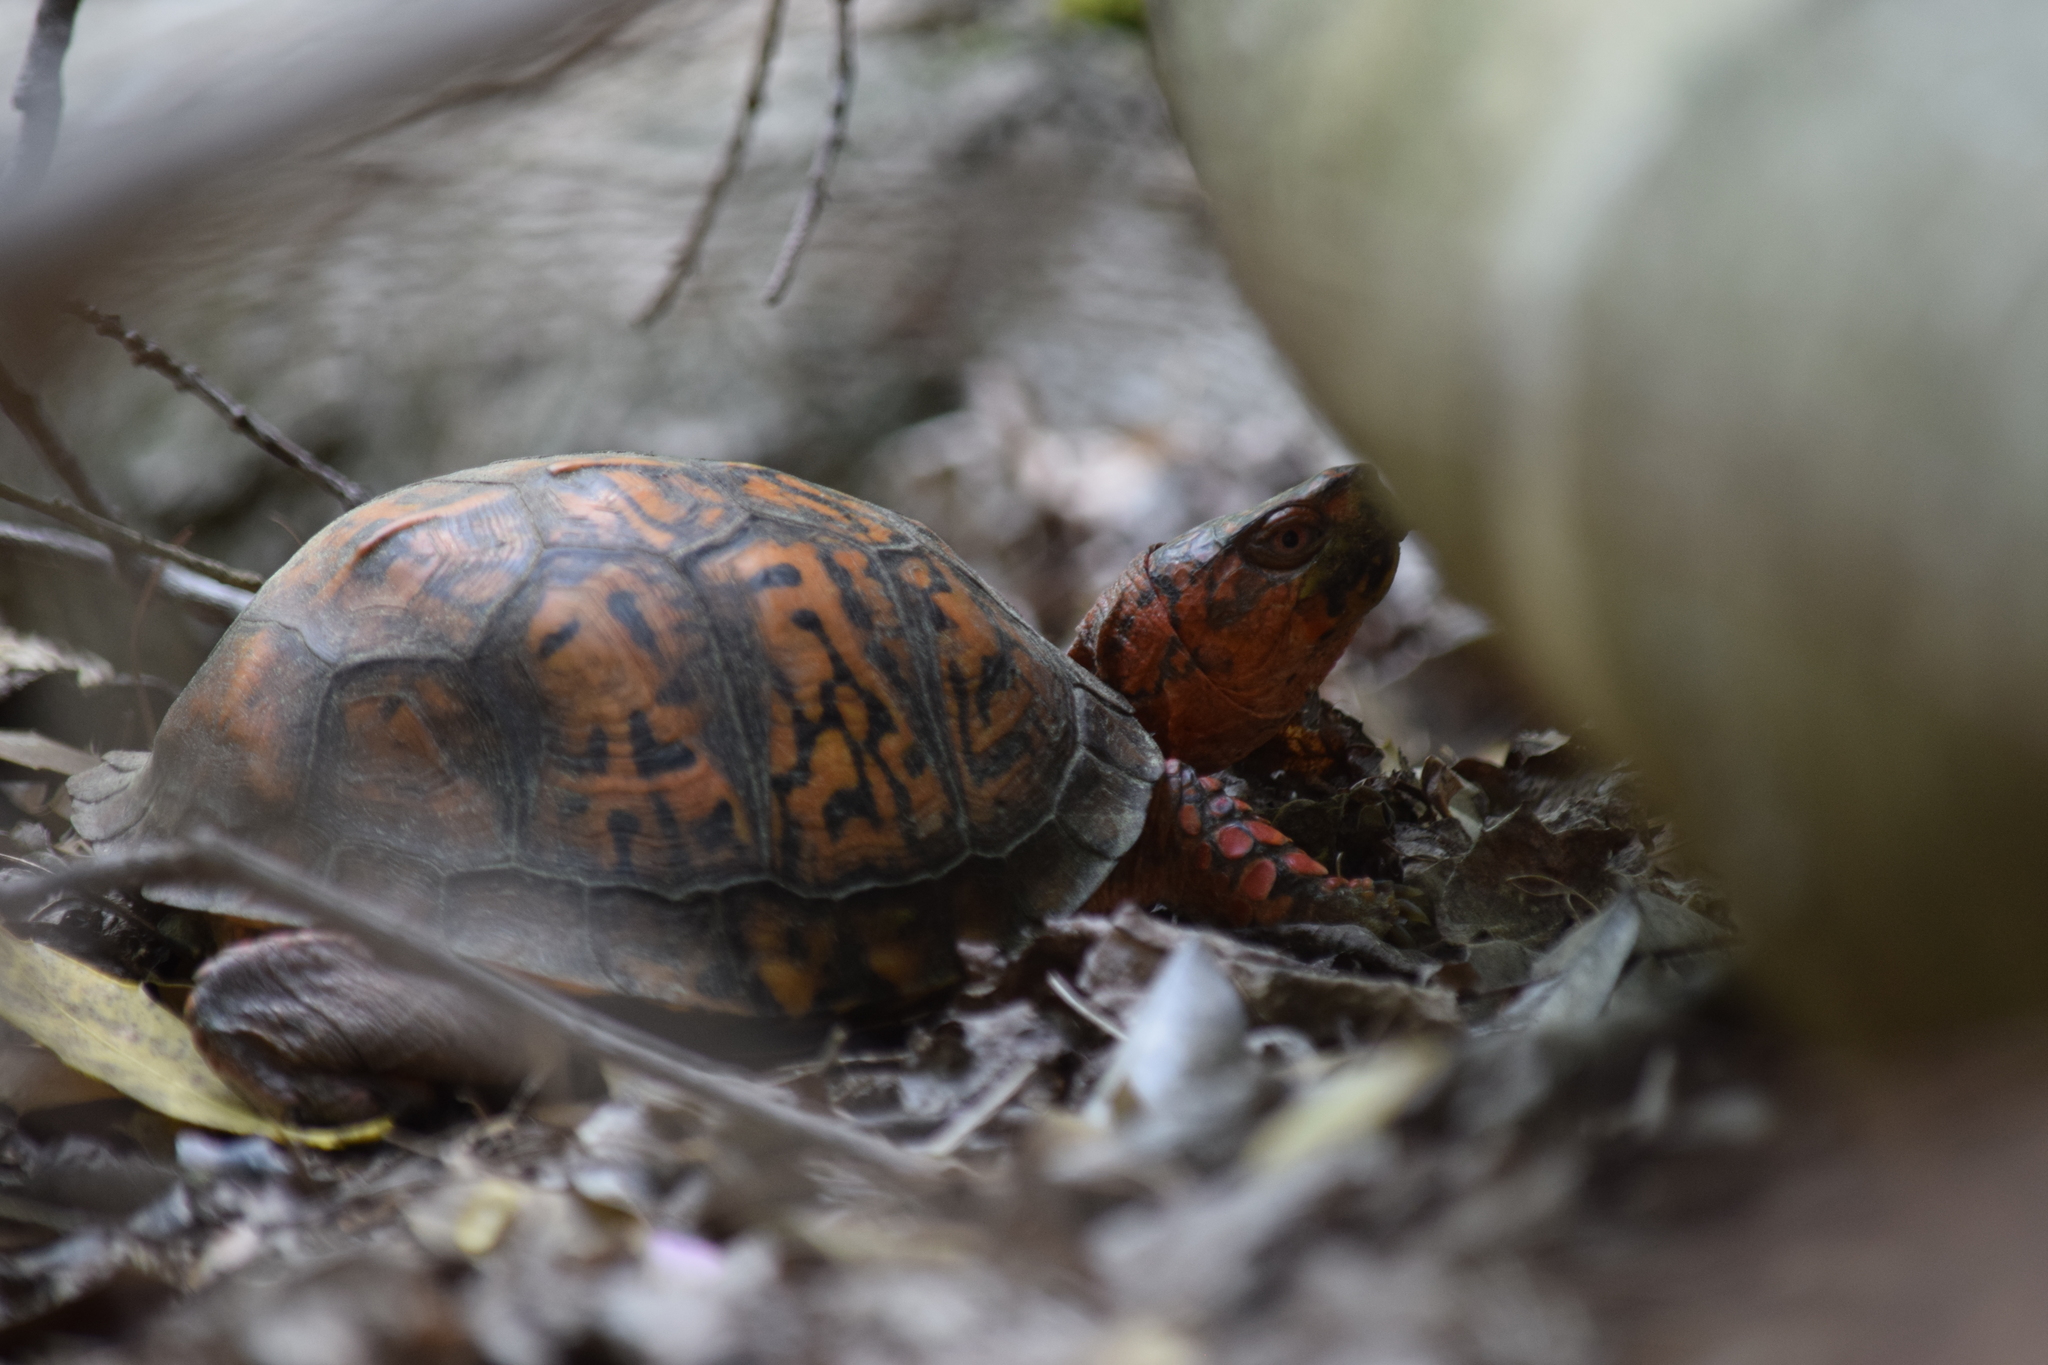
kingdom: Animalia
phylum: Chordata
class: Testudines
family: Emydidae
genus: Terrapene
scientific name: Terrapene carolina
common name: Common box turtle
